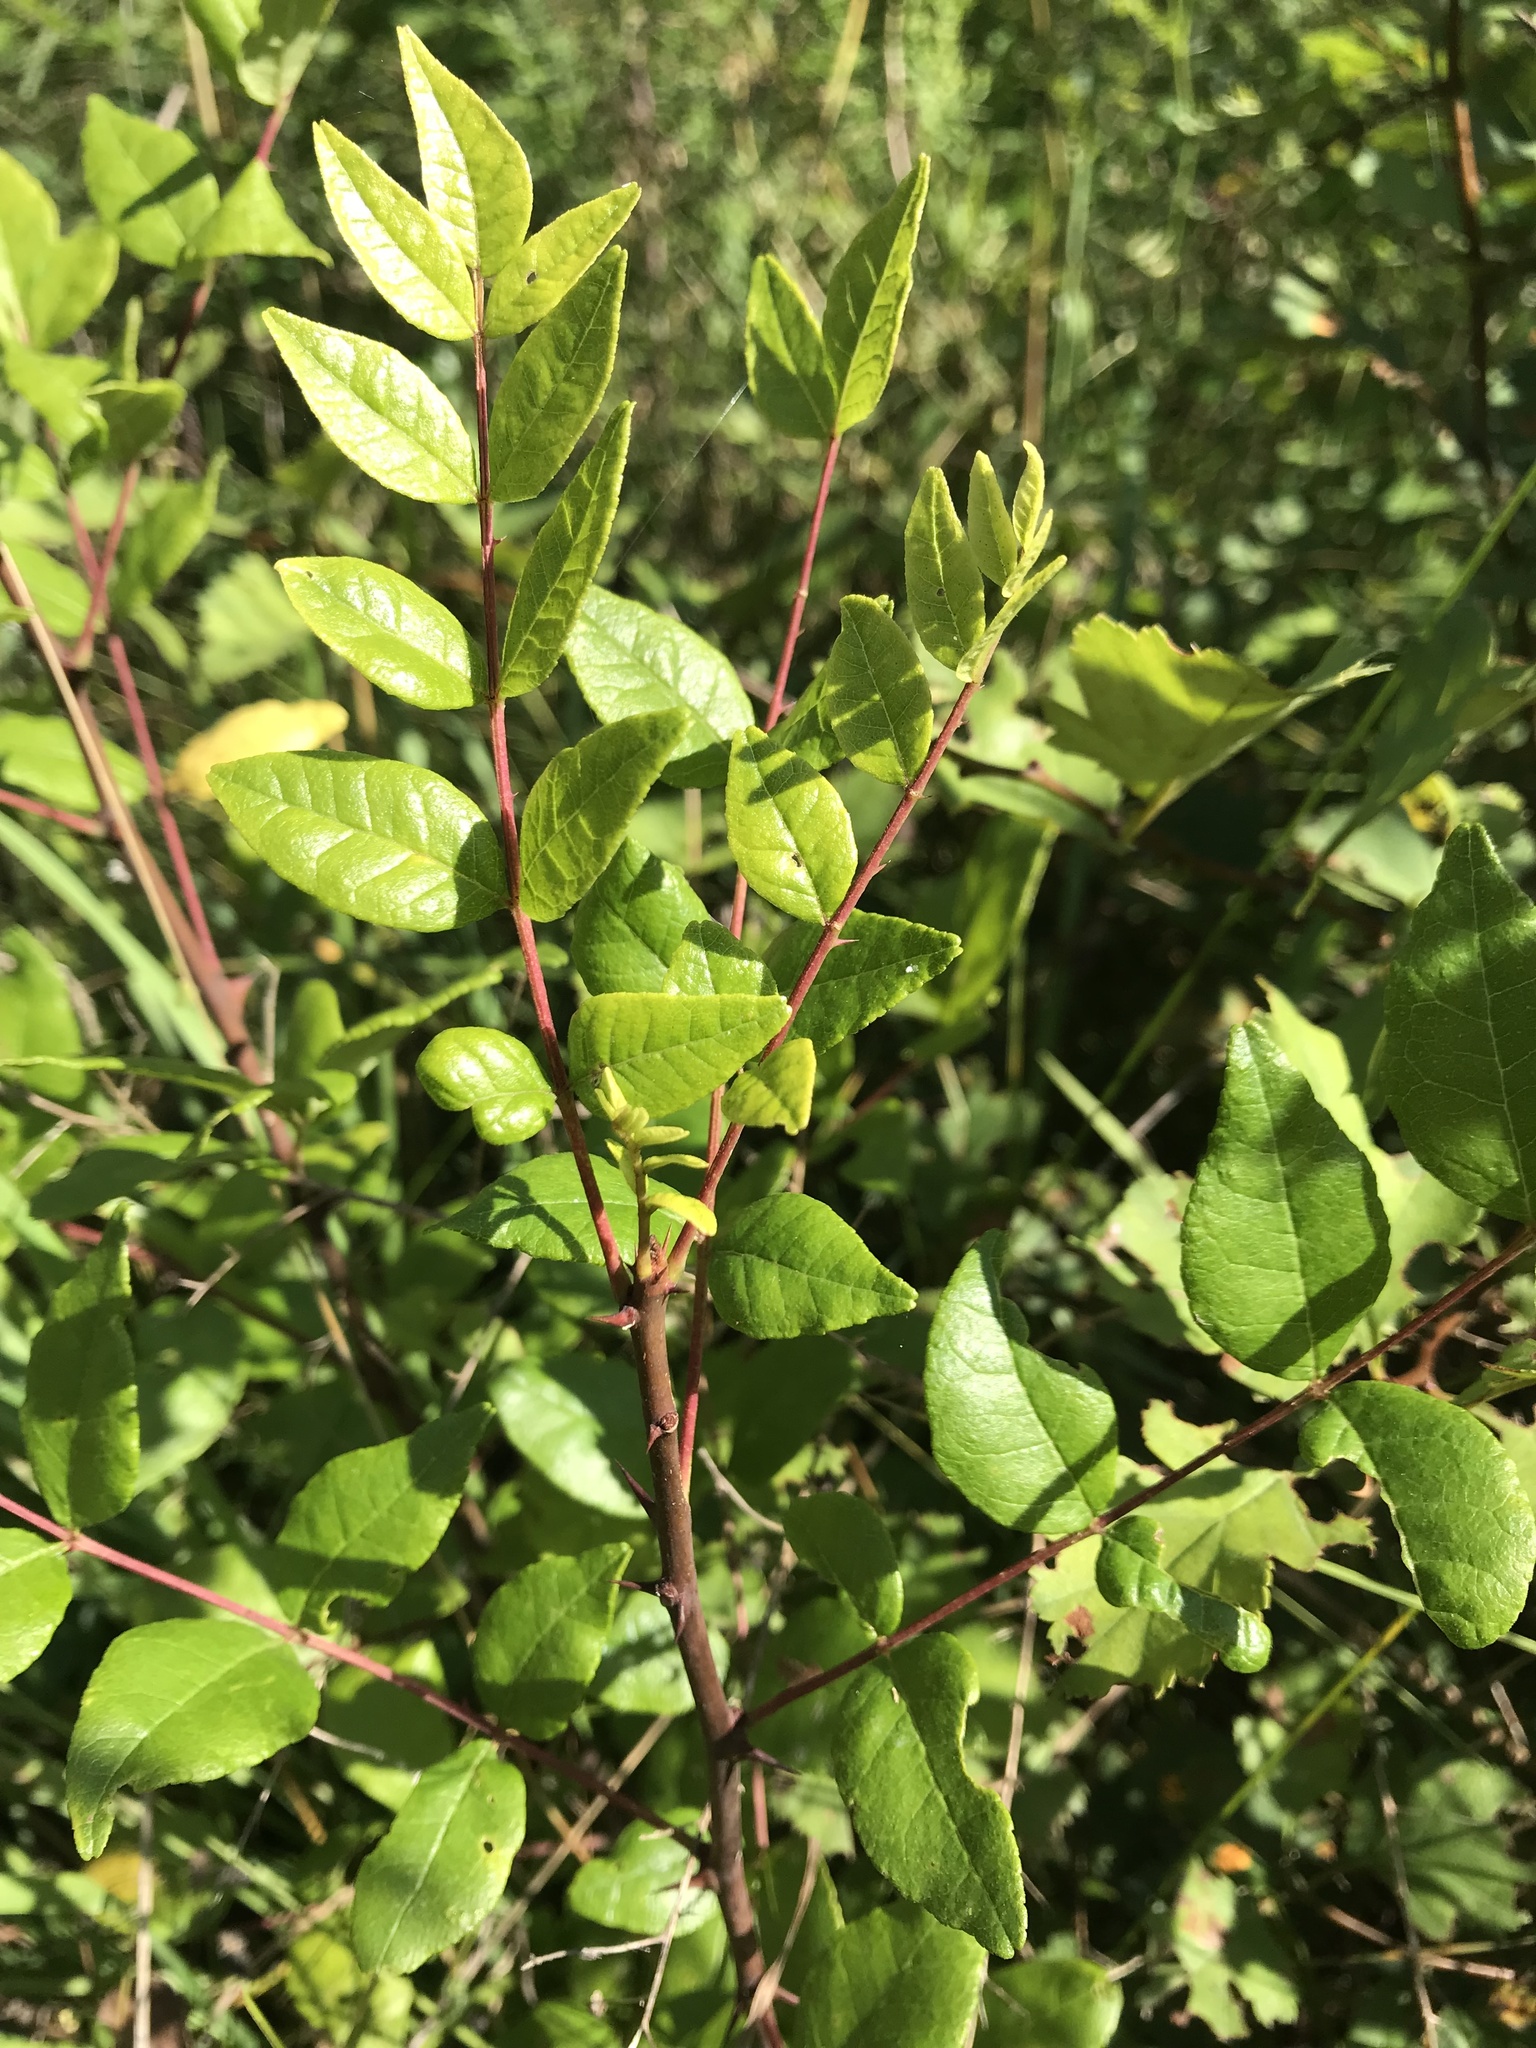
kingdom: Plantae
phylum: Tracheophyta
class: Magnoliopsida
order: Sapindales
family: Rutaceae
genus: Zanthoxylum
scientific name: Zanthoxylum americanum
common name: Northern prickly-ash
